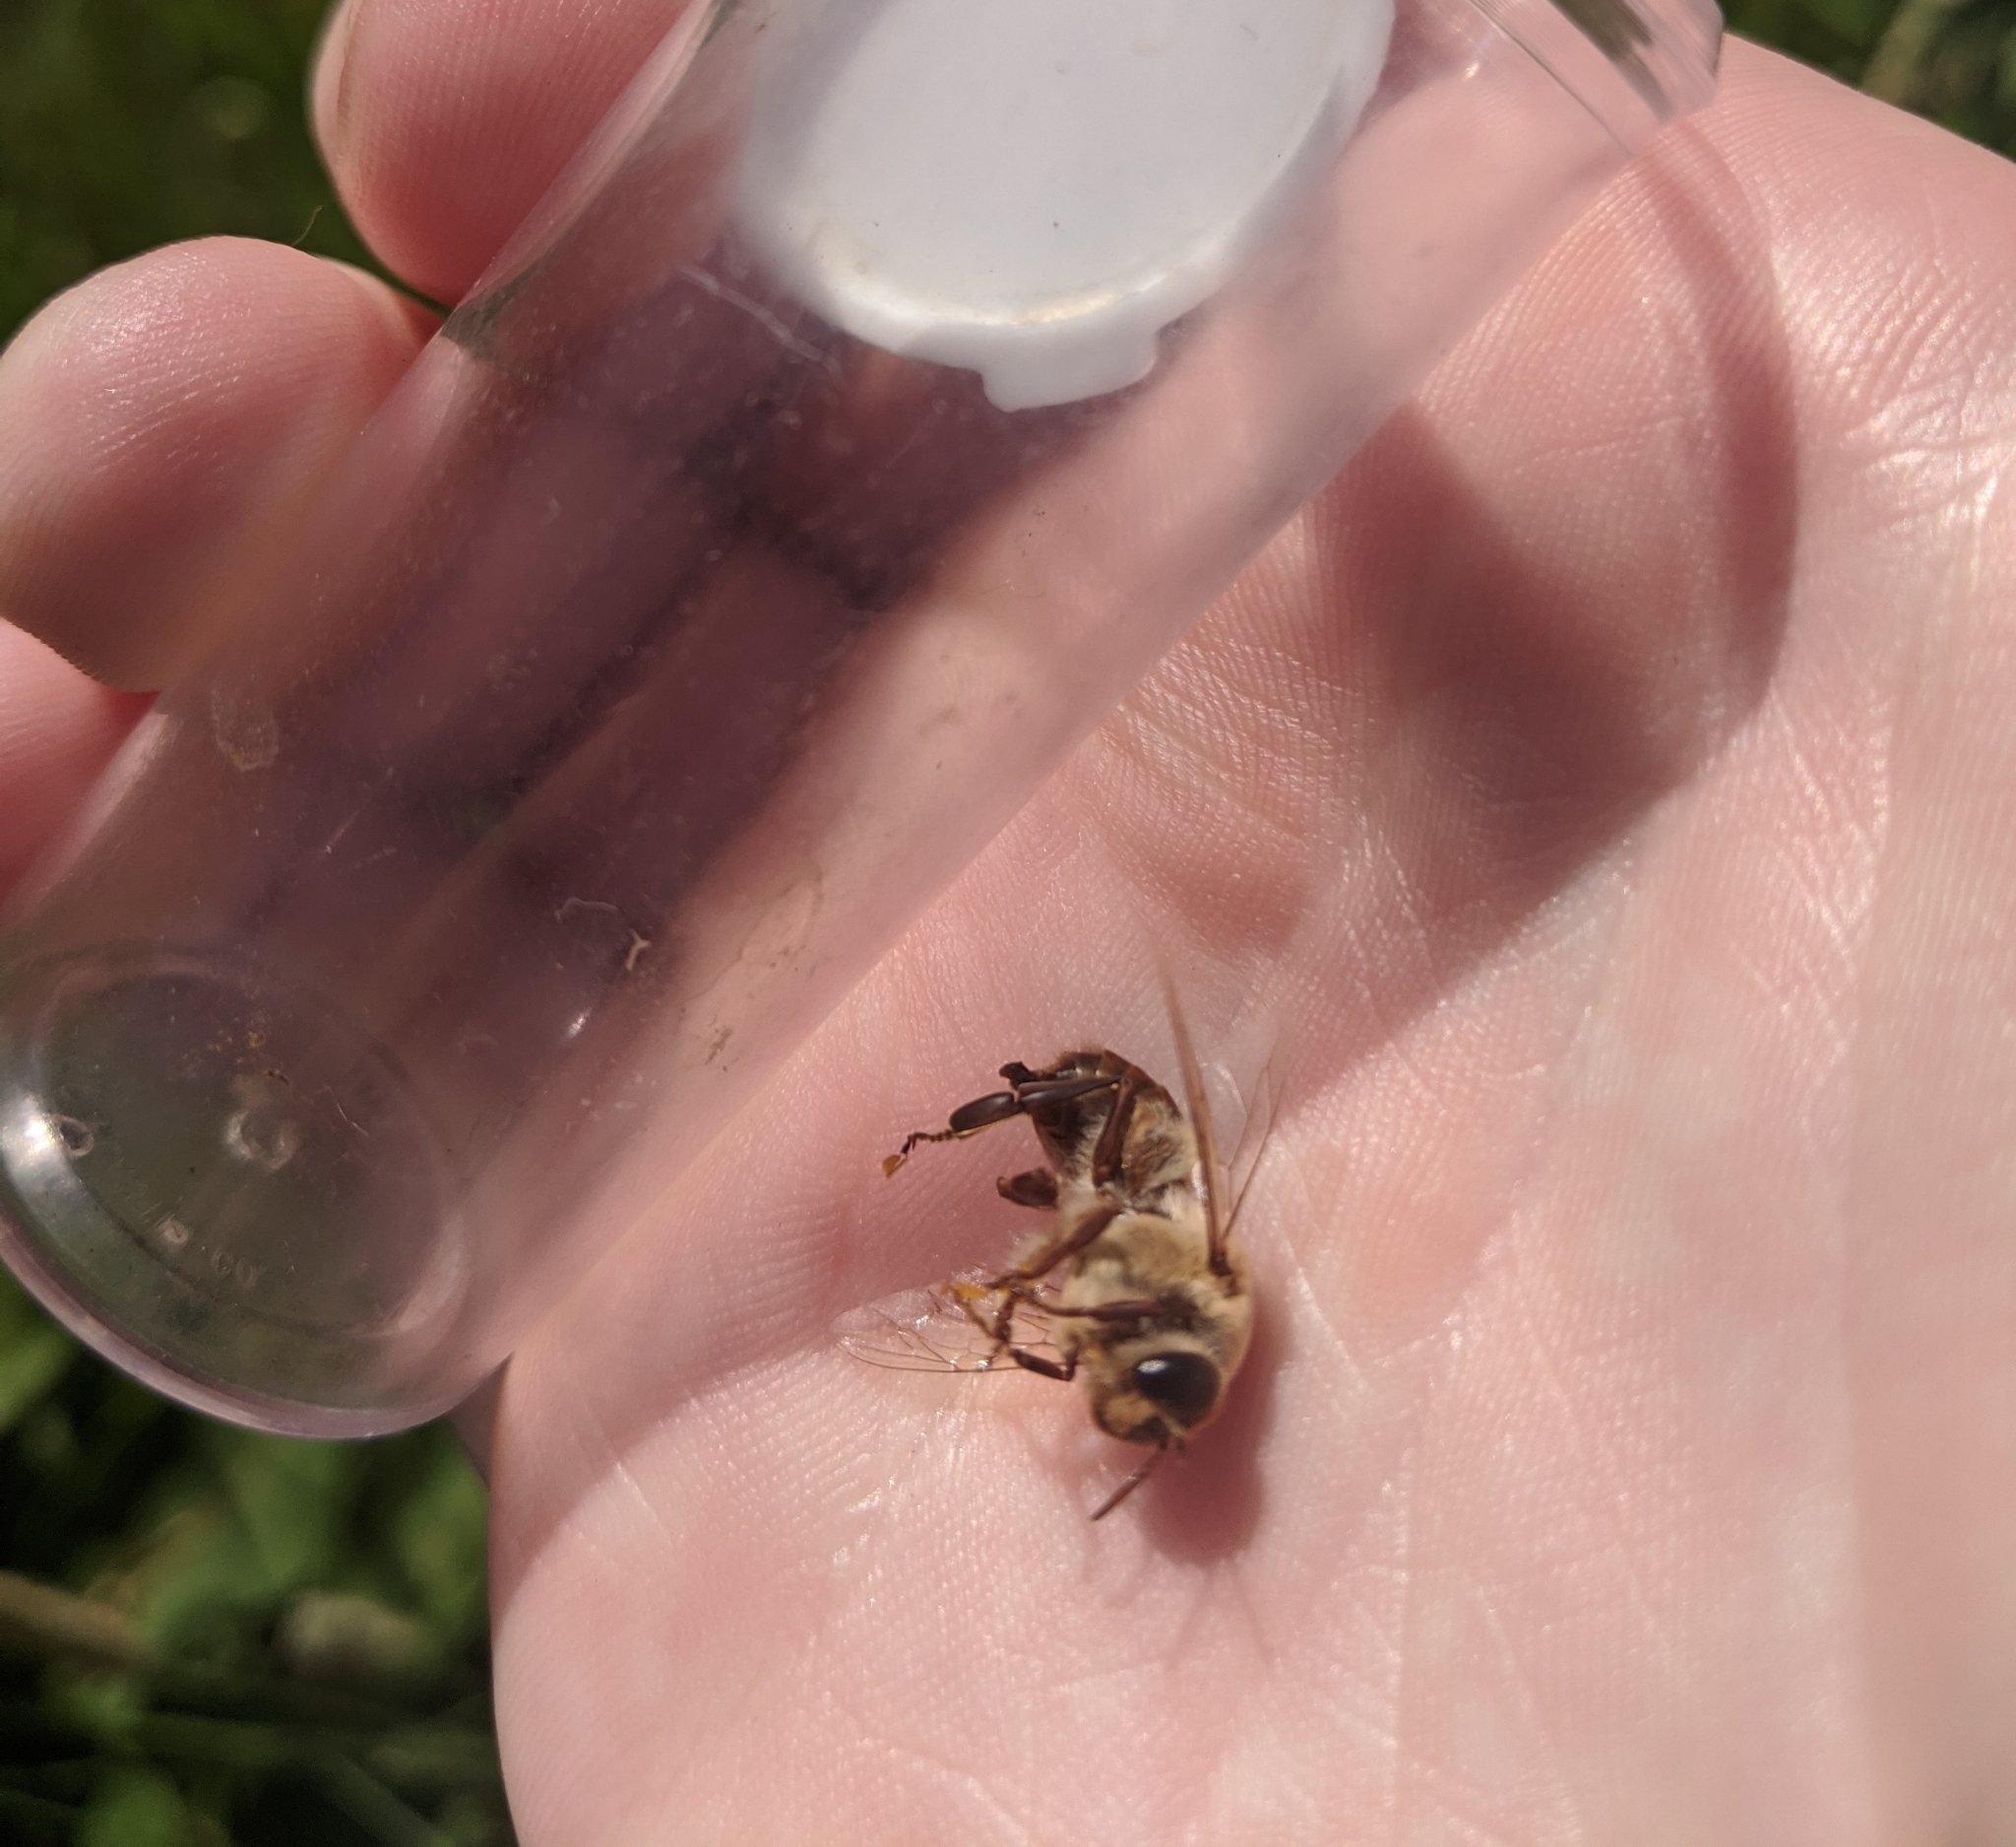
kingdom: Animalia
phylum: Arthropoda
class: Insecta
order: Hymenoptera
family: Apidae
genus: Apis
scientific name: Apis mellifera
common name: Honey bee
